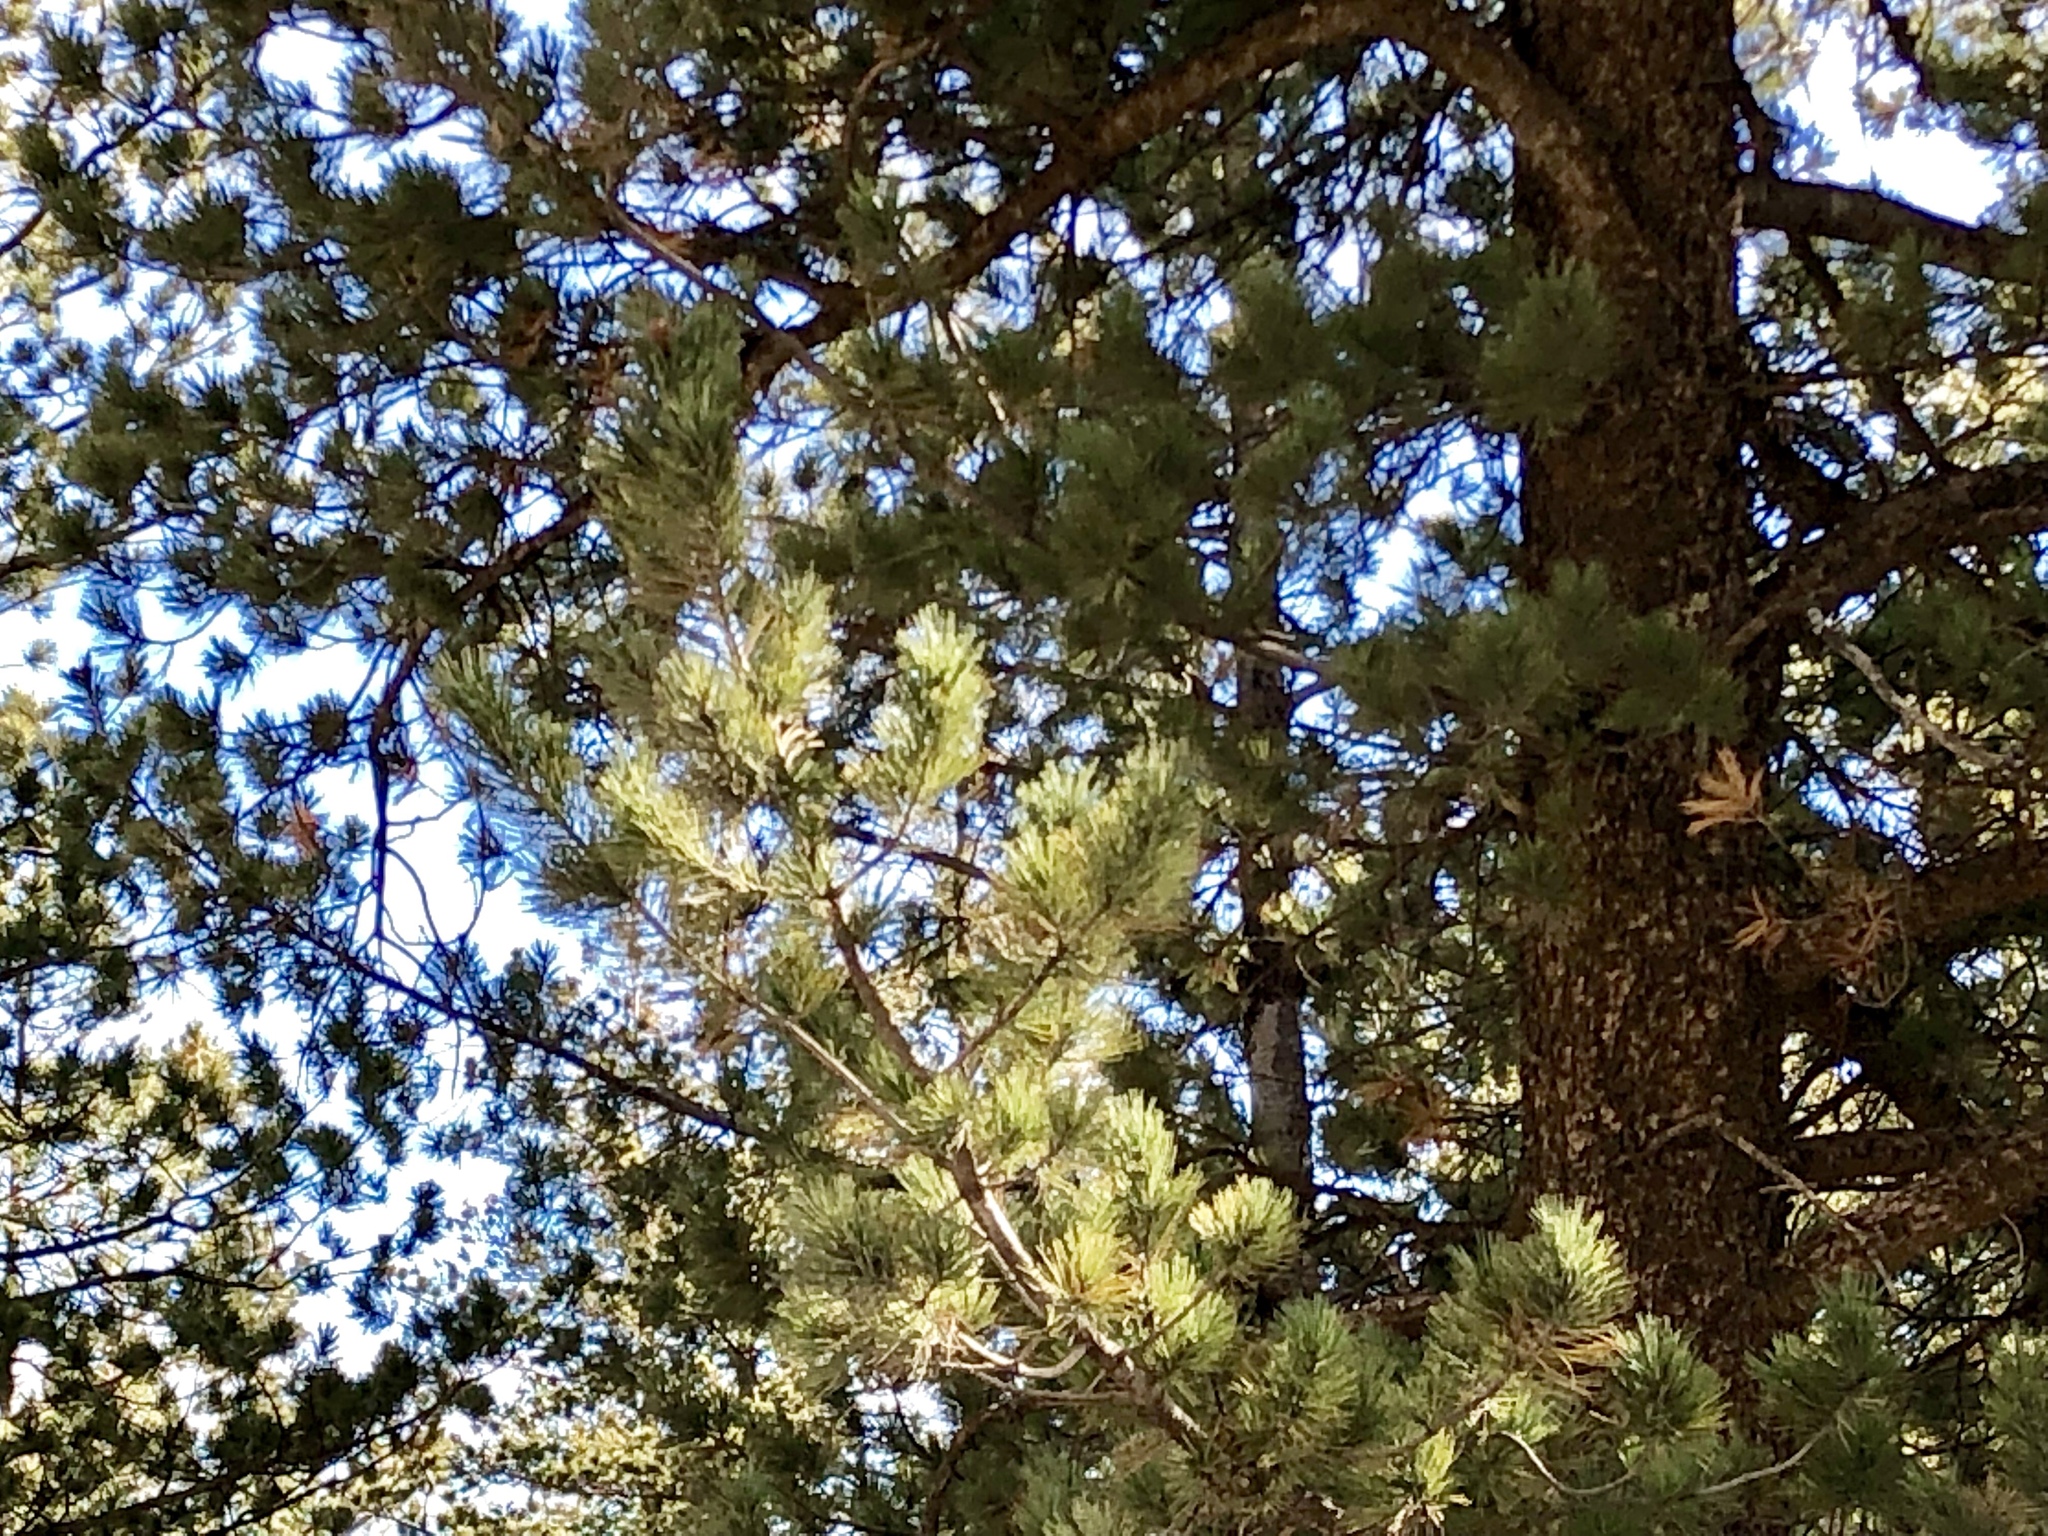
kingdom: Plantae
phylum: Tracheophyta
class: Pinopsida
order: Pinales
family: Pinaceae
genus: Pinus
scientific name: Pinus strobiformis
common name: Southwestern white pine
